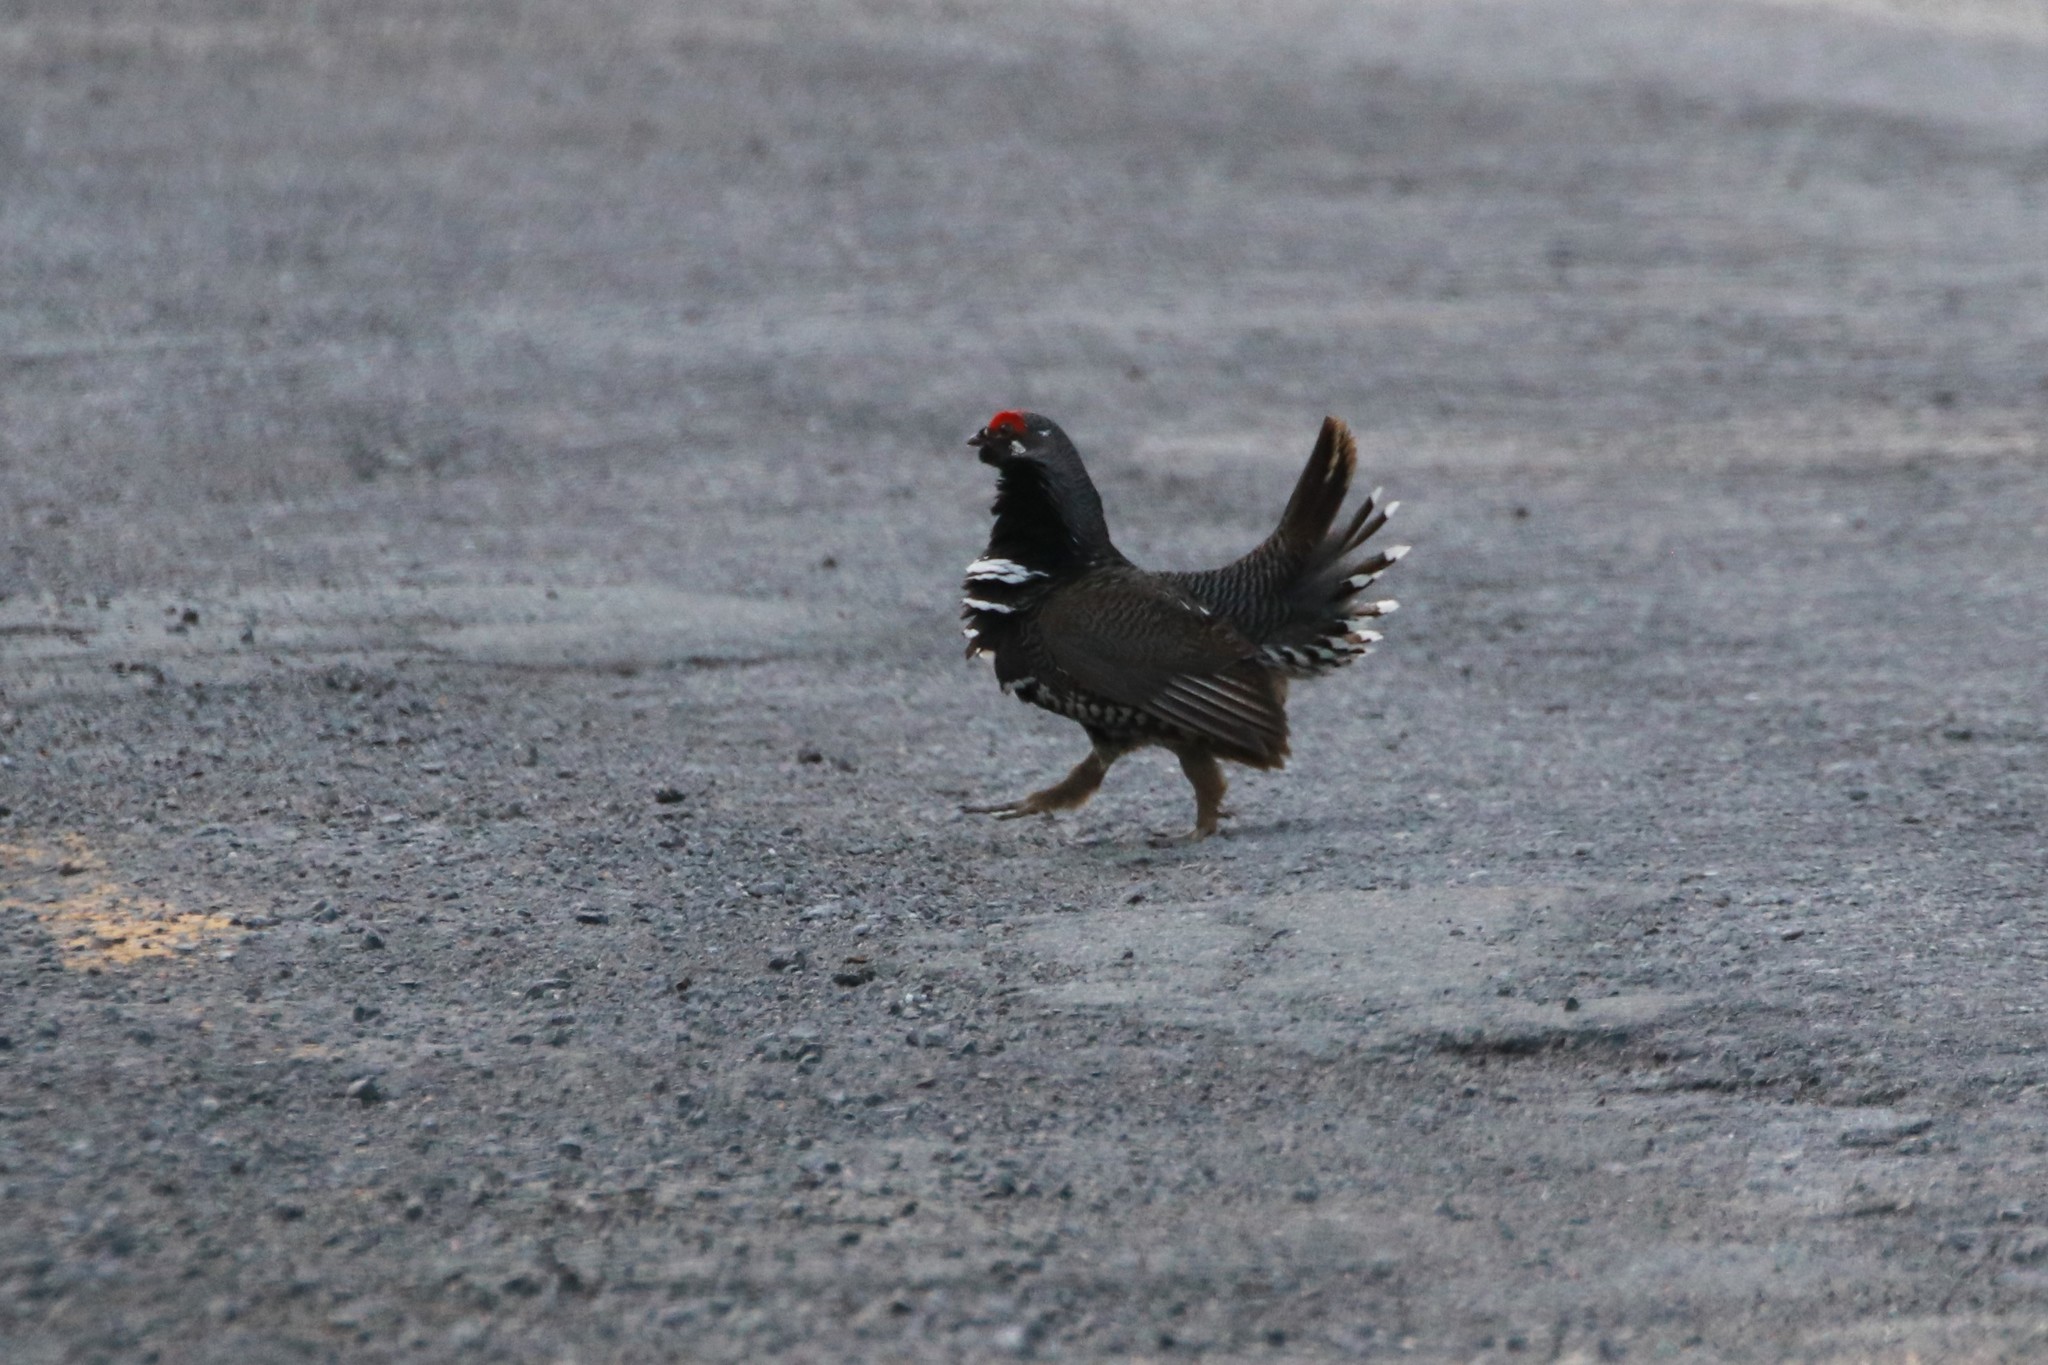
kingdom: Animalia
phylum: Chordata
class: Aves
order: Galliformes
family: Phasianidae
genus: Canachites
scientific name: Canachites canadensis
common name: Spruce grouse
